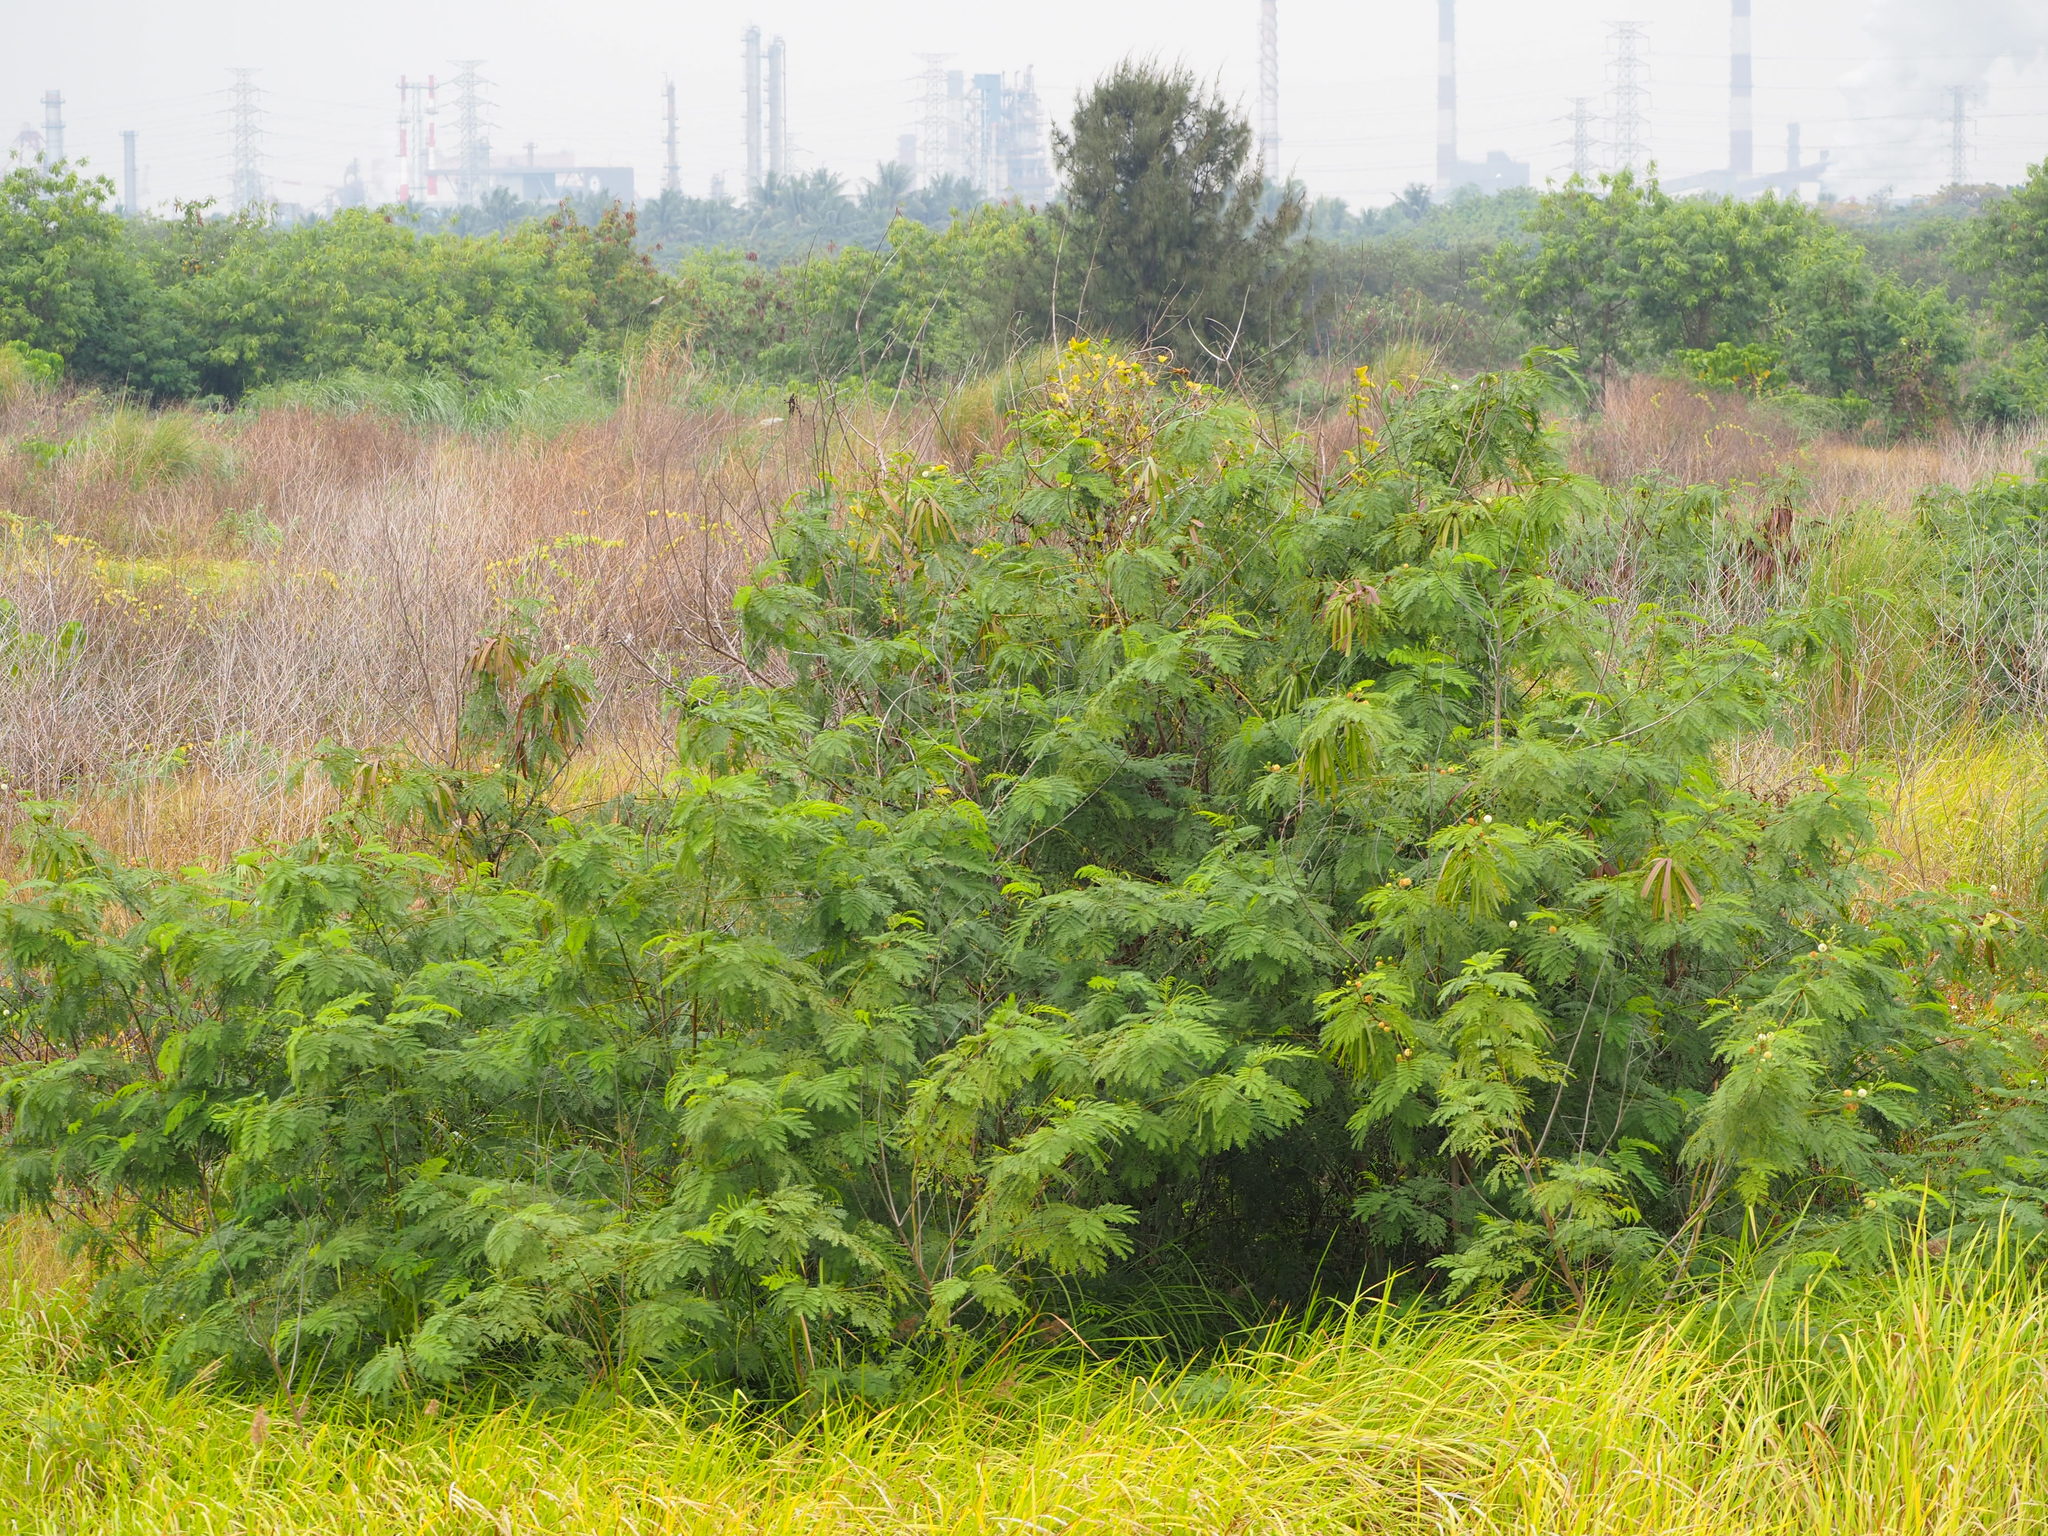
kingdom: Plantae
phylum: Tracheophyta
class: Magnoliopsida
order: Fabales
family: Fabaceae
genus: Leucaena
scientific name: Leucaena leucocephala
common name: White leadtree
